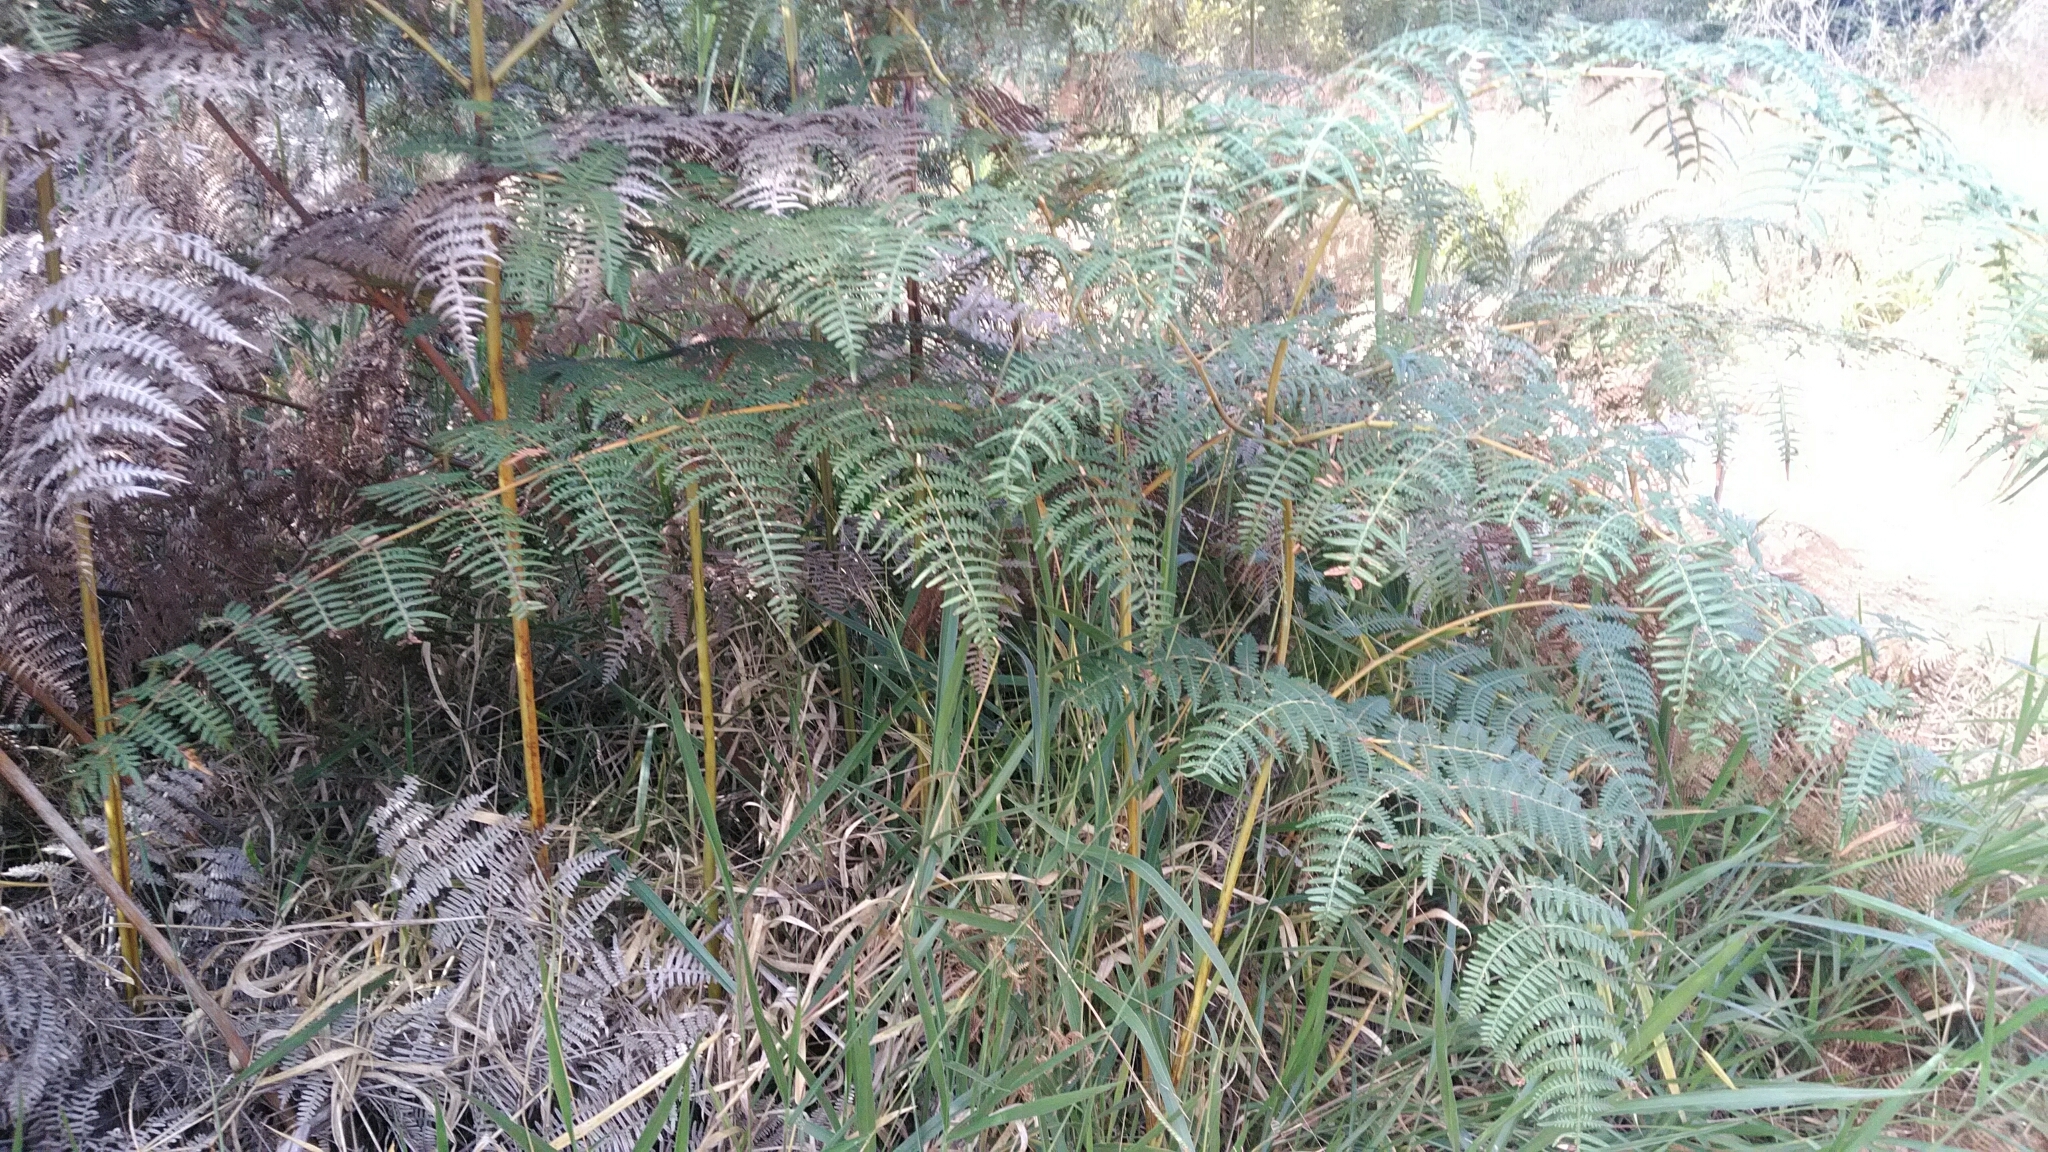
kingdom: Plantae
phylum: Tracheophyta
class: Polypodiopsida
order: Polypodiales
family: Dennstaedtiaceae
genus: Pteridium
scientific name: Pteridium esculentum
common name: Bracken fern
